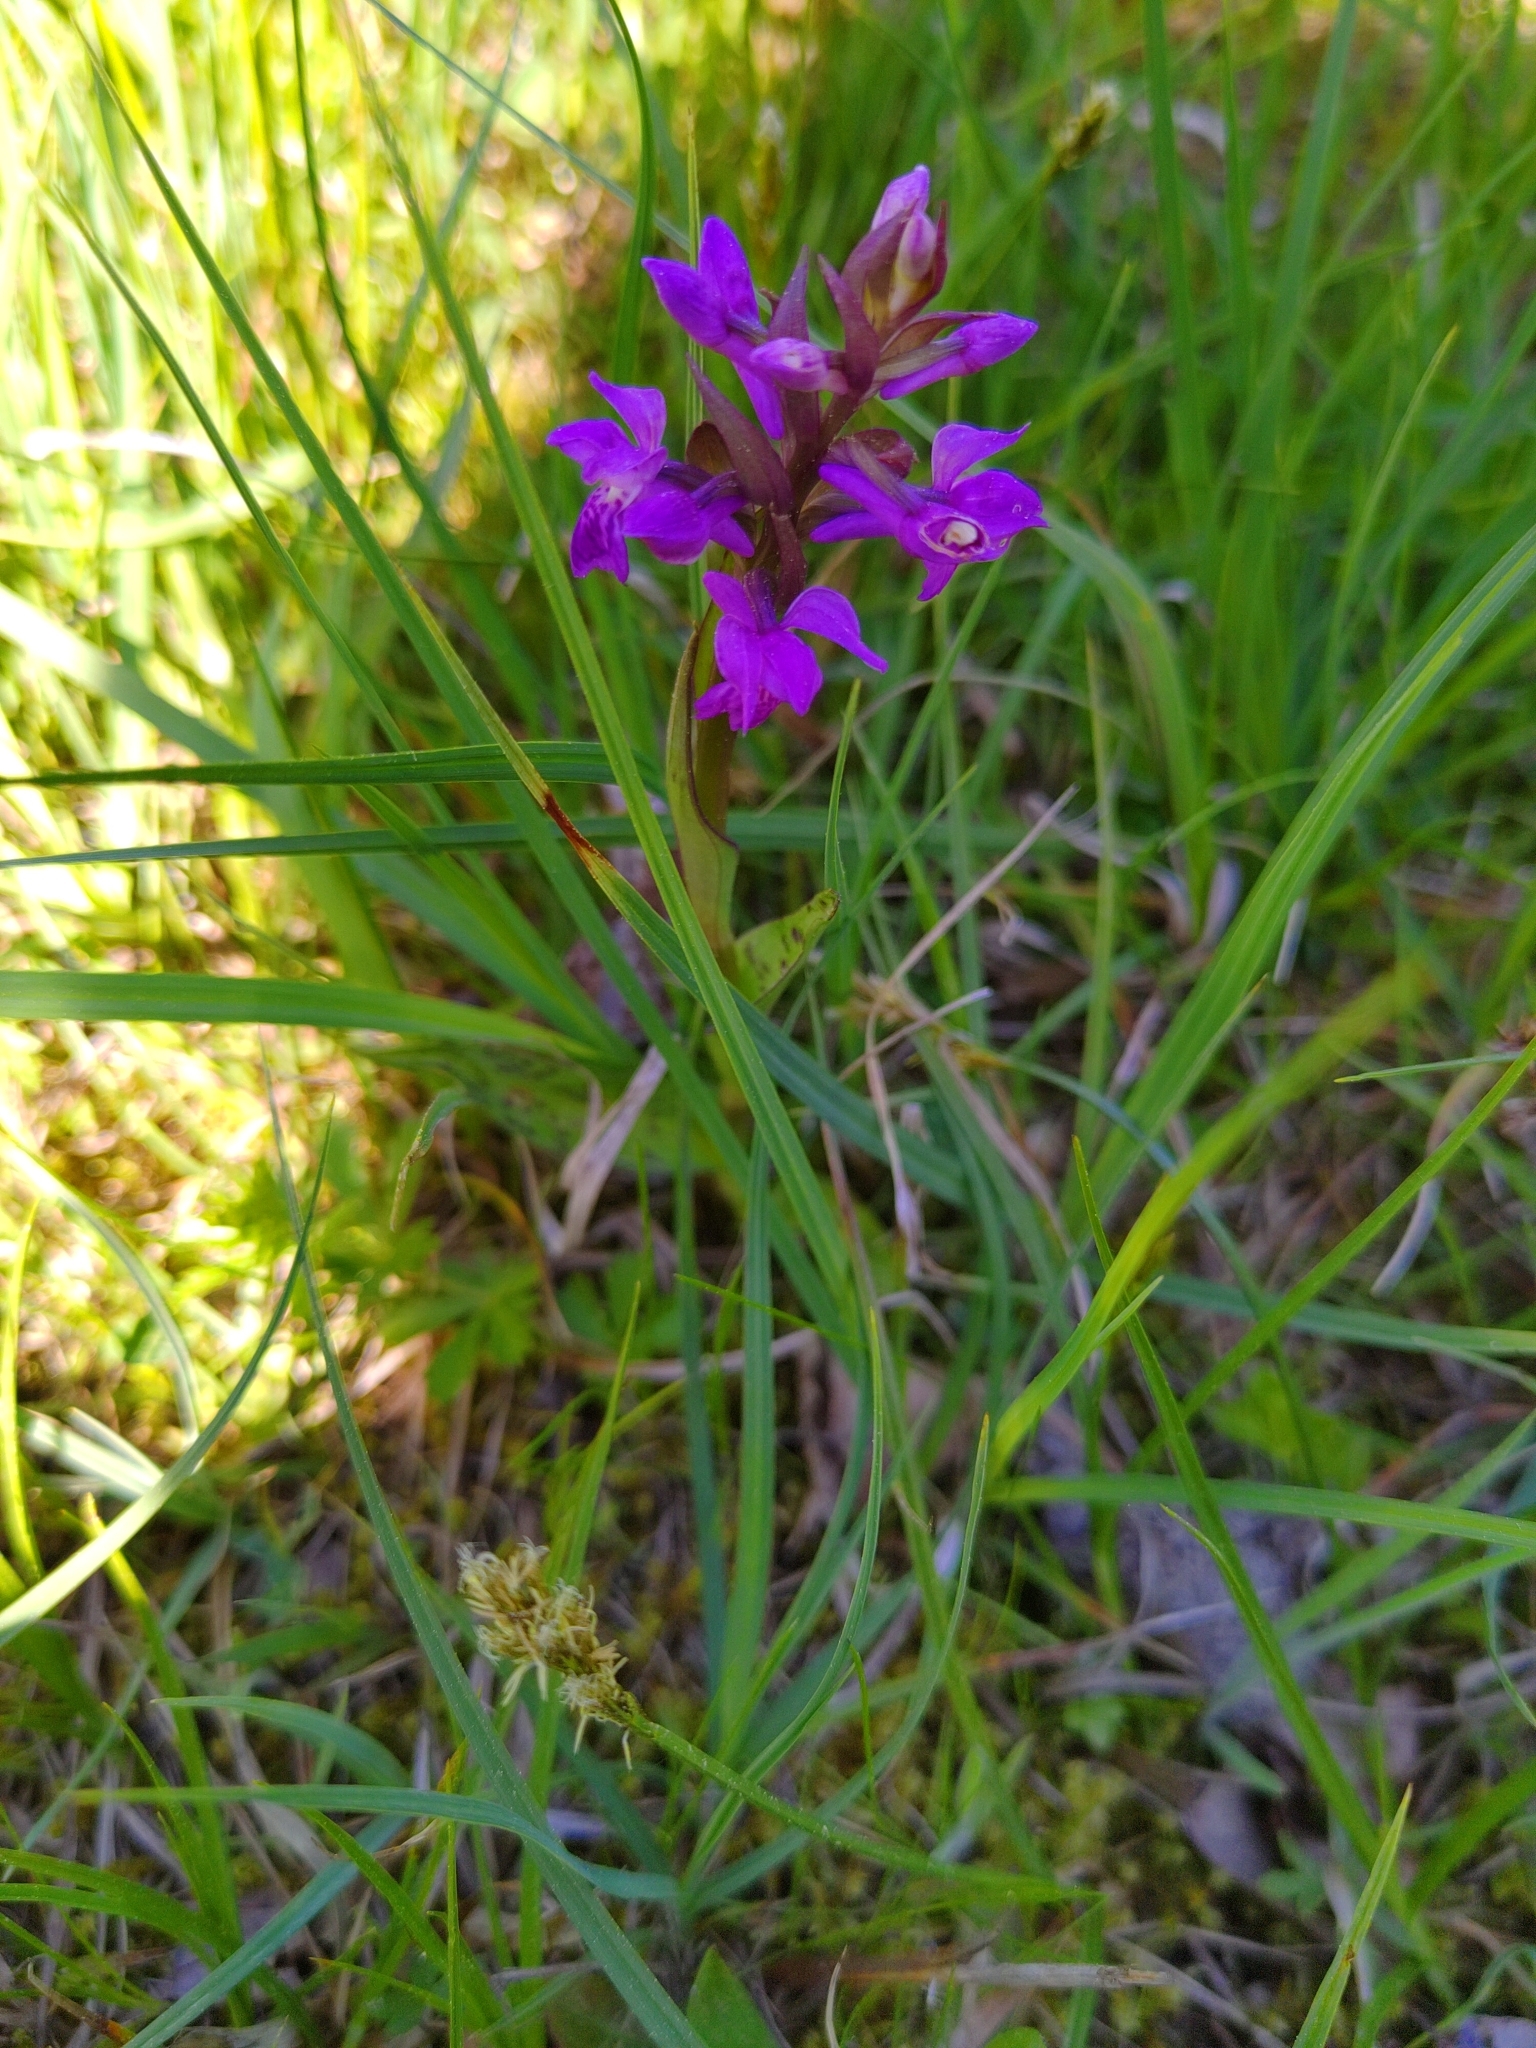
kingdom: Plantae
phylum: Tracheophyta
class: Liliopsida
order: Asparagales
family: Orchidaceae
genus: Dactylorhiza
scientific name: Dactylorhiza majalis
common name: Marsh orchid
